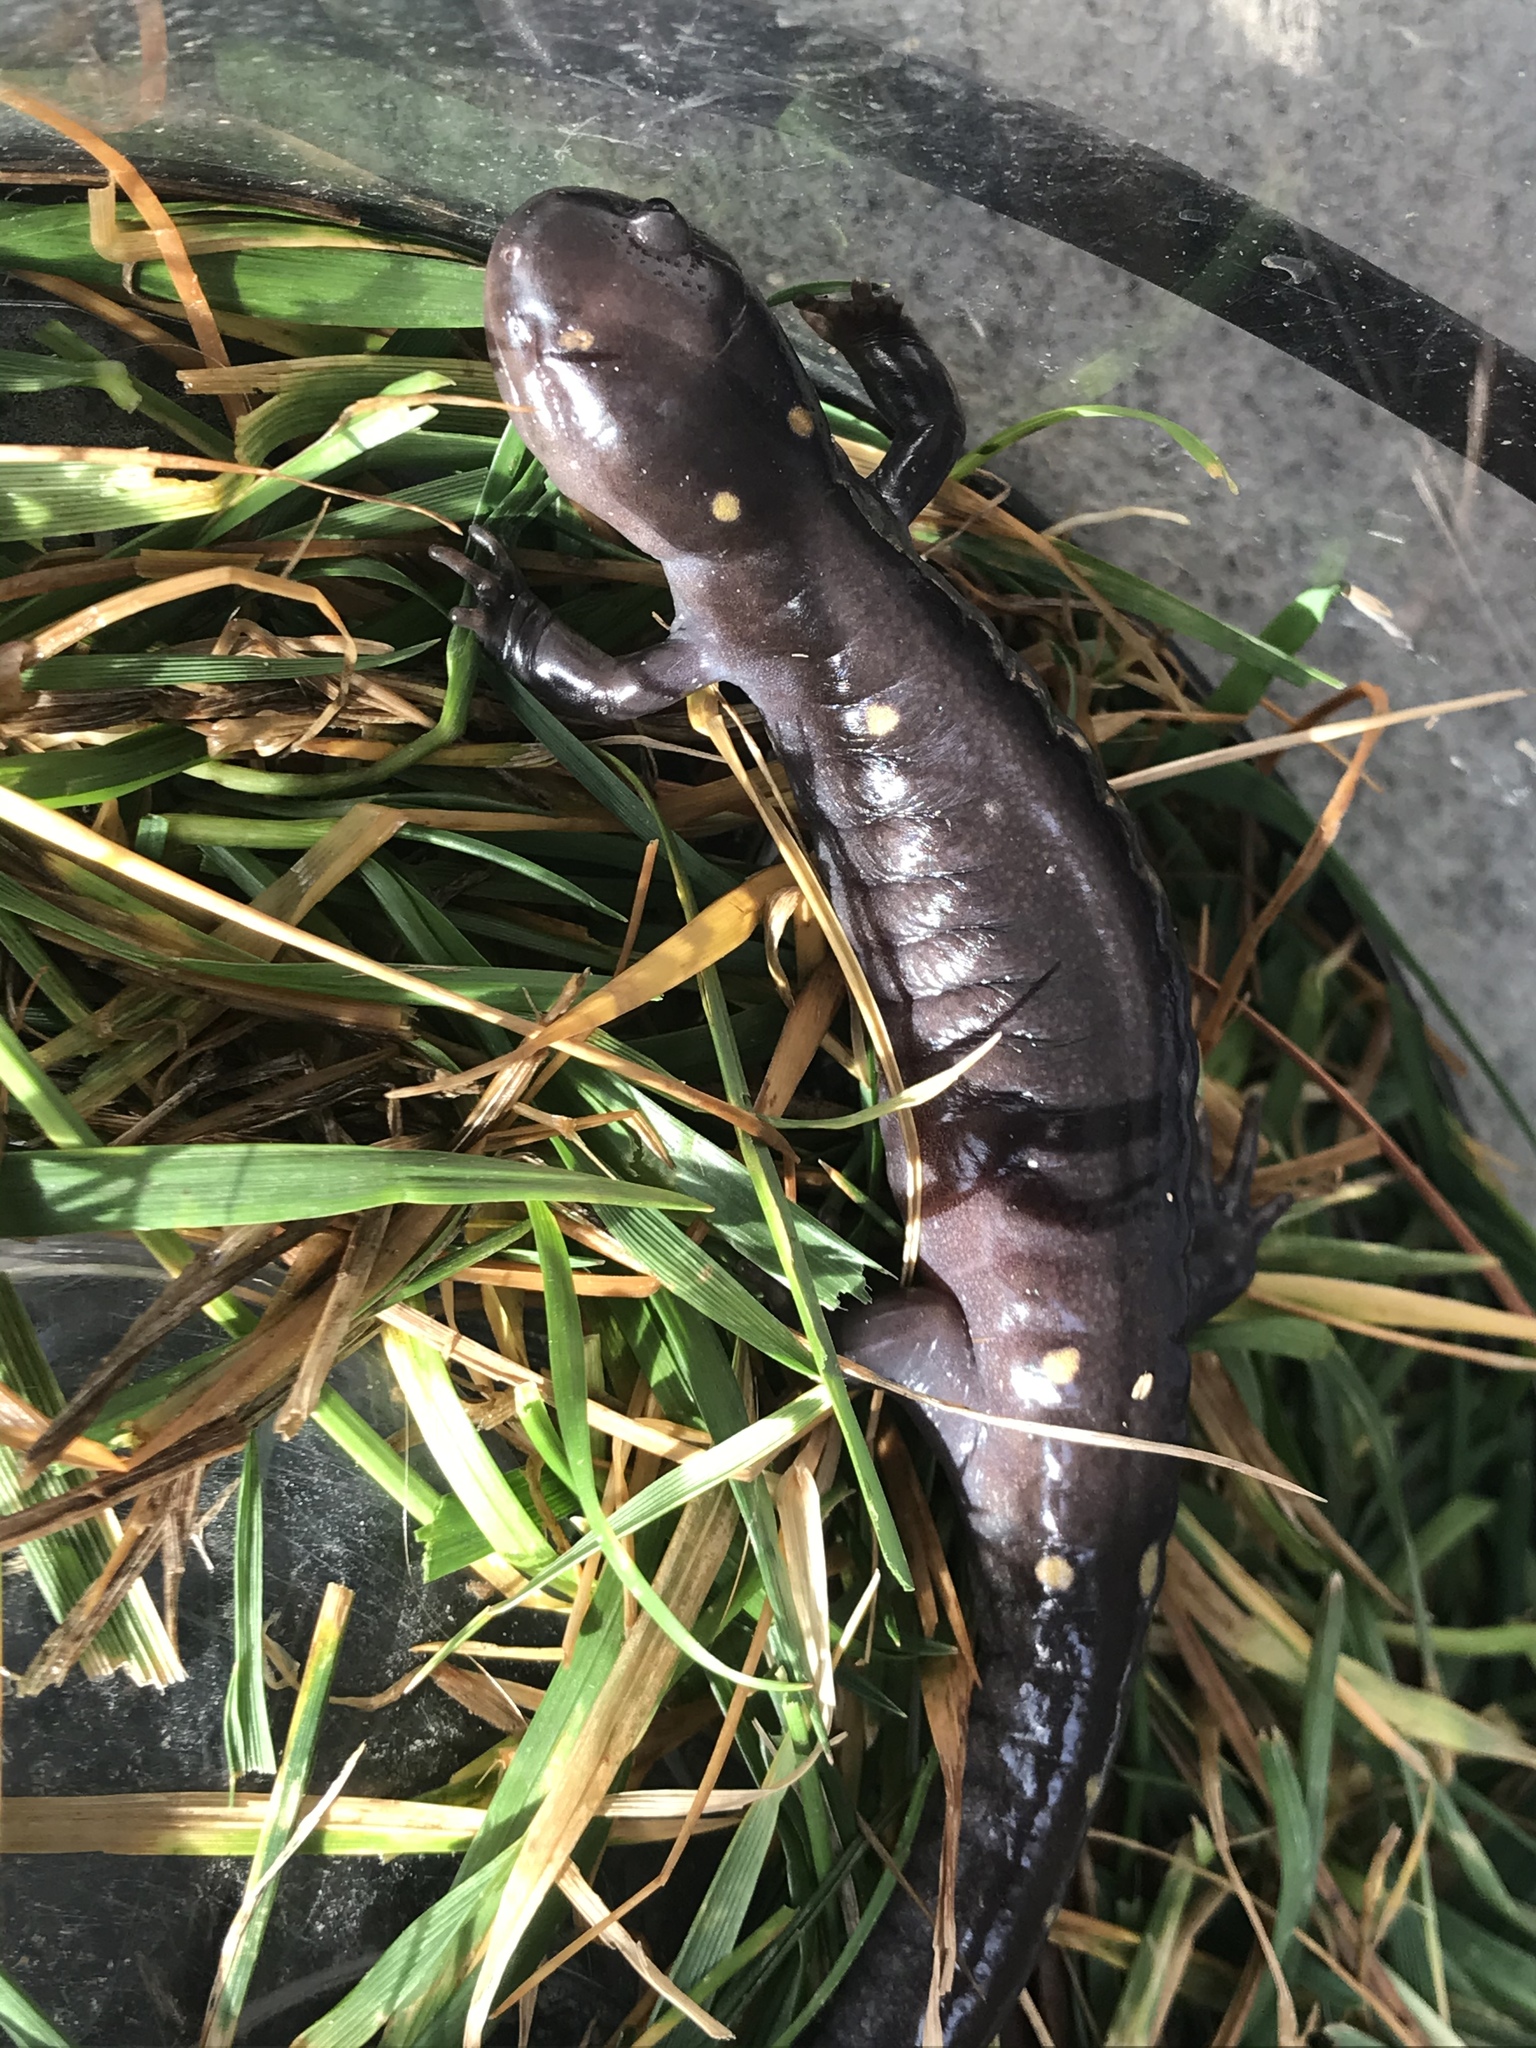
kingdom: Animalia
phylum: Chordata
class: Amphibia
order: Caudata
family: Ambystomatidae
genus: Ambystoma
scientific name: Ambystoma maculatum
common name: Spotted salamander
